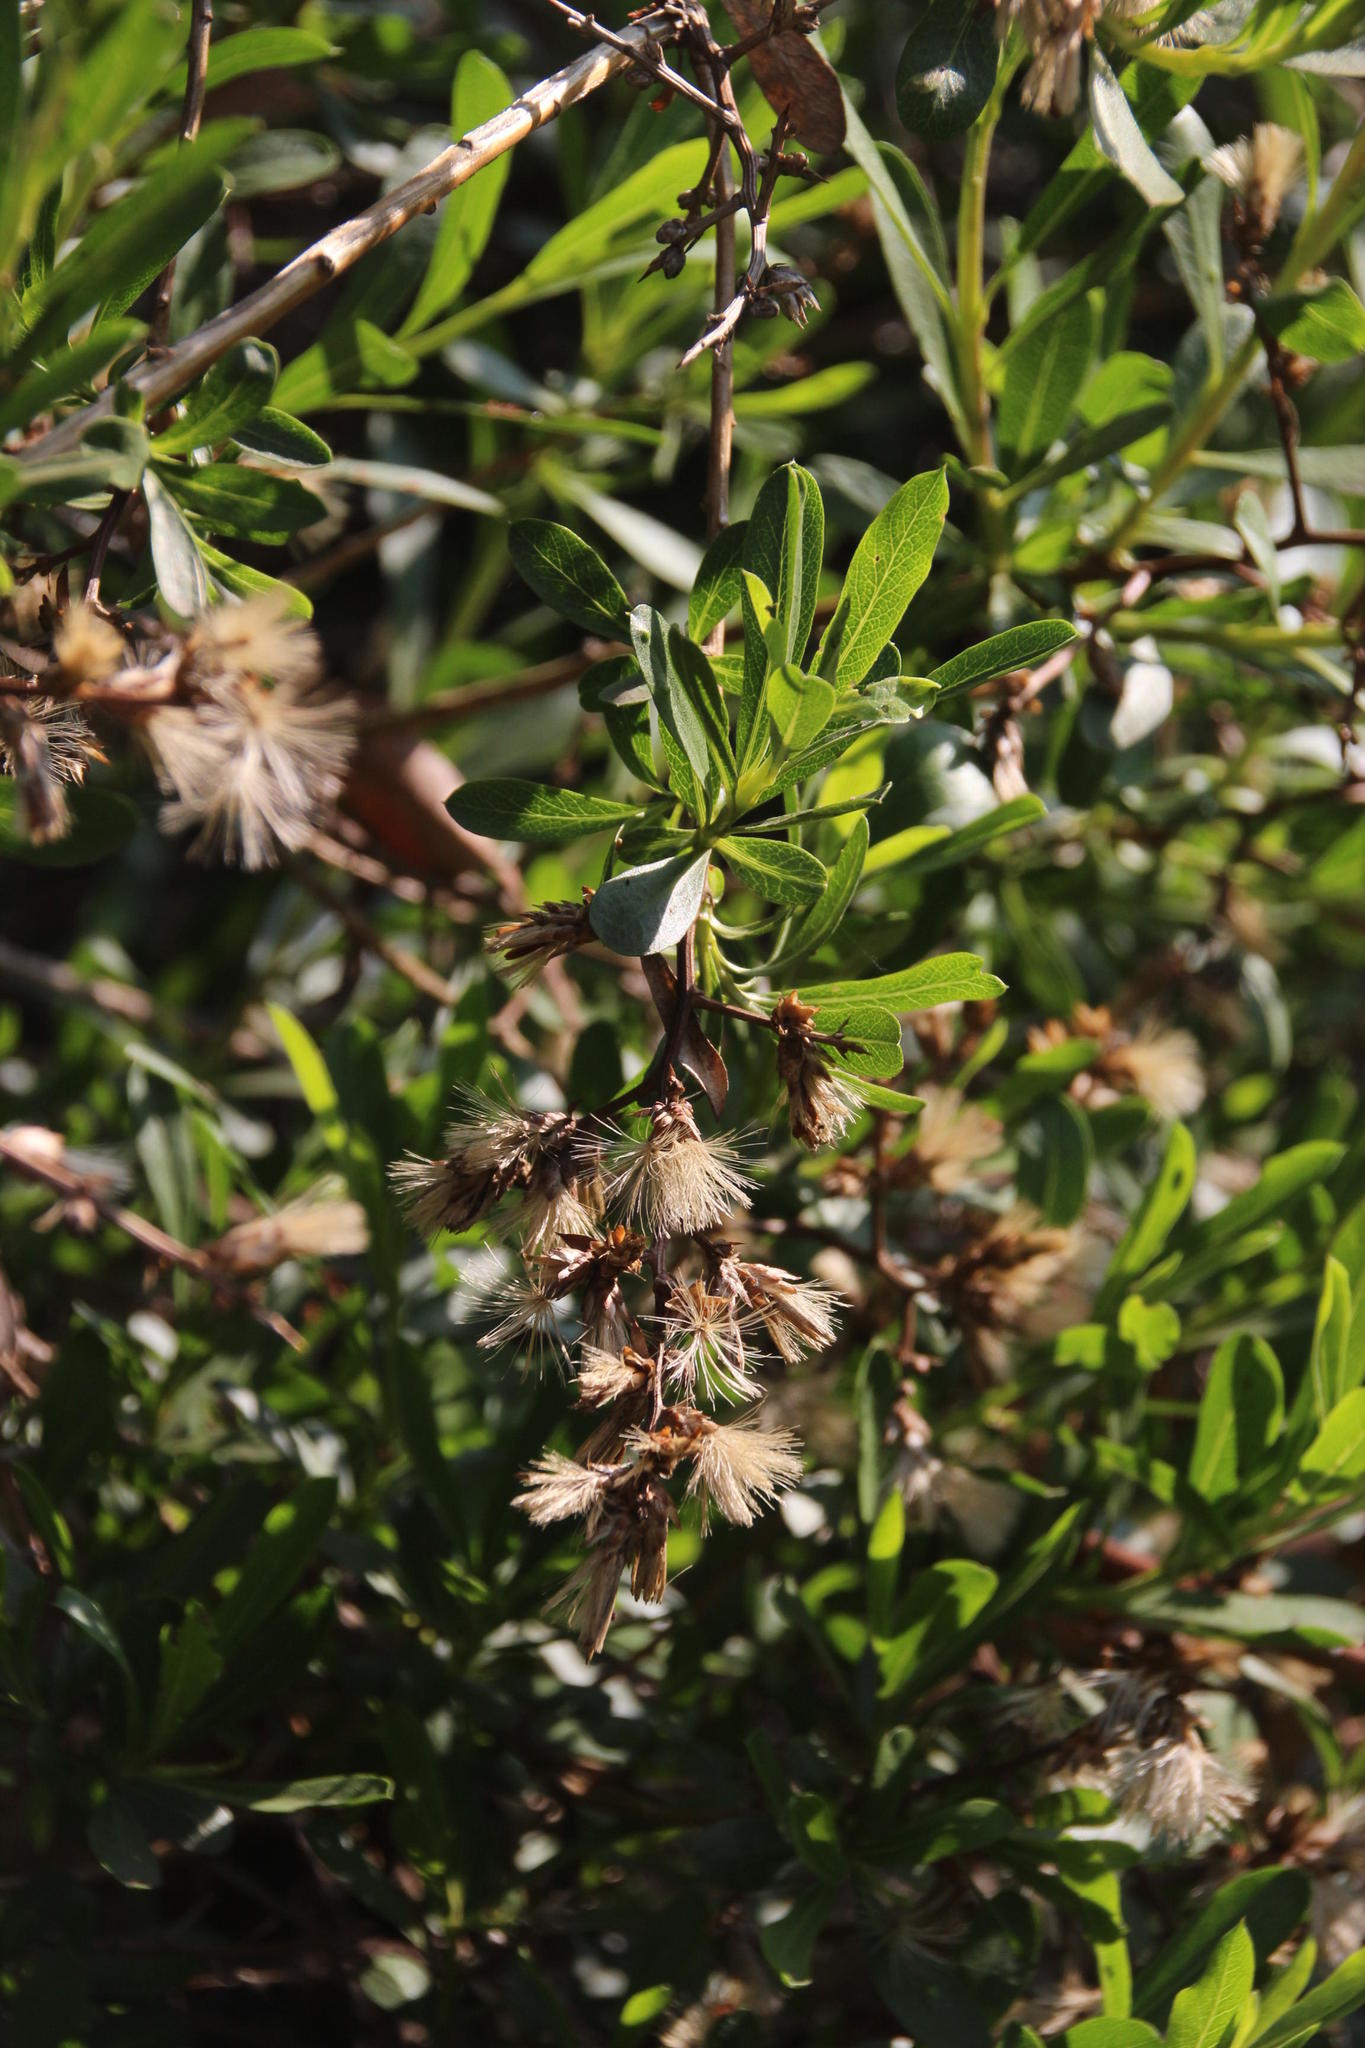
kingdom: Plantae
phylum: Tracheophyta
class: Magnoliopsida
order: Asterales
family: Asteraceae
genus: Proustia
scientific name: Proustia cuneifolia
